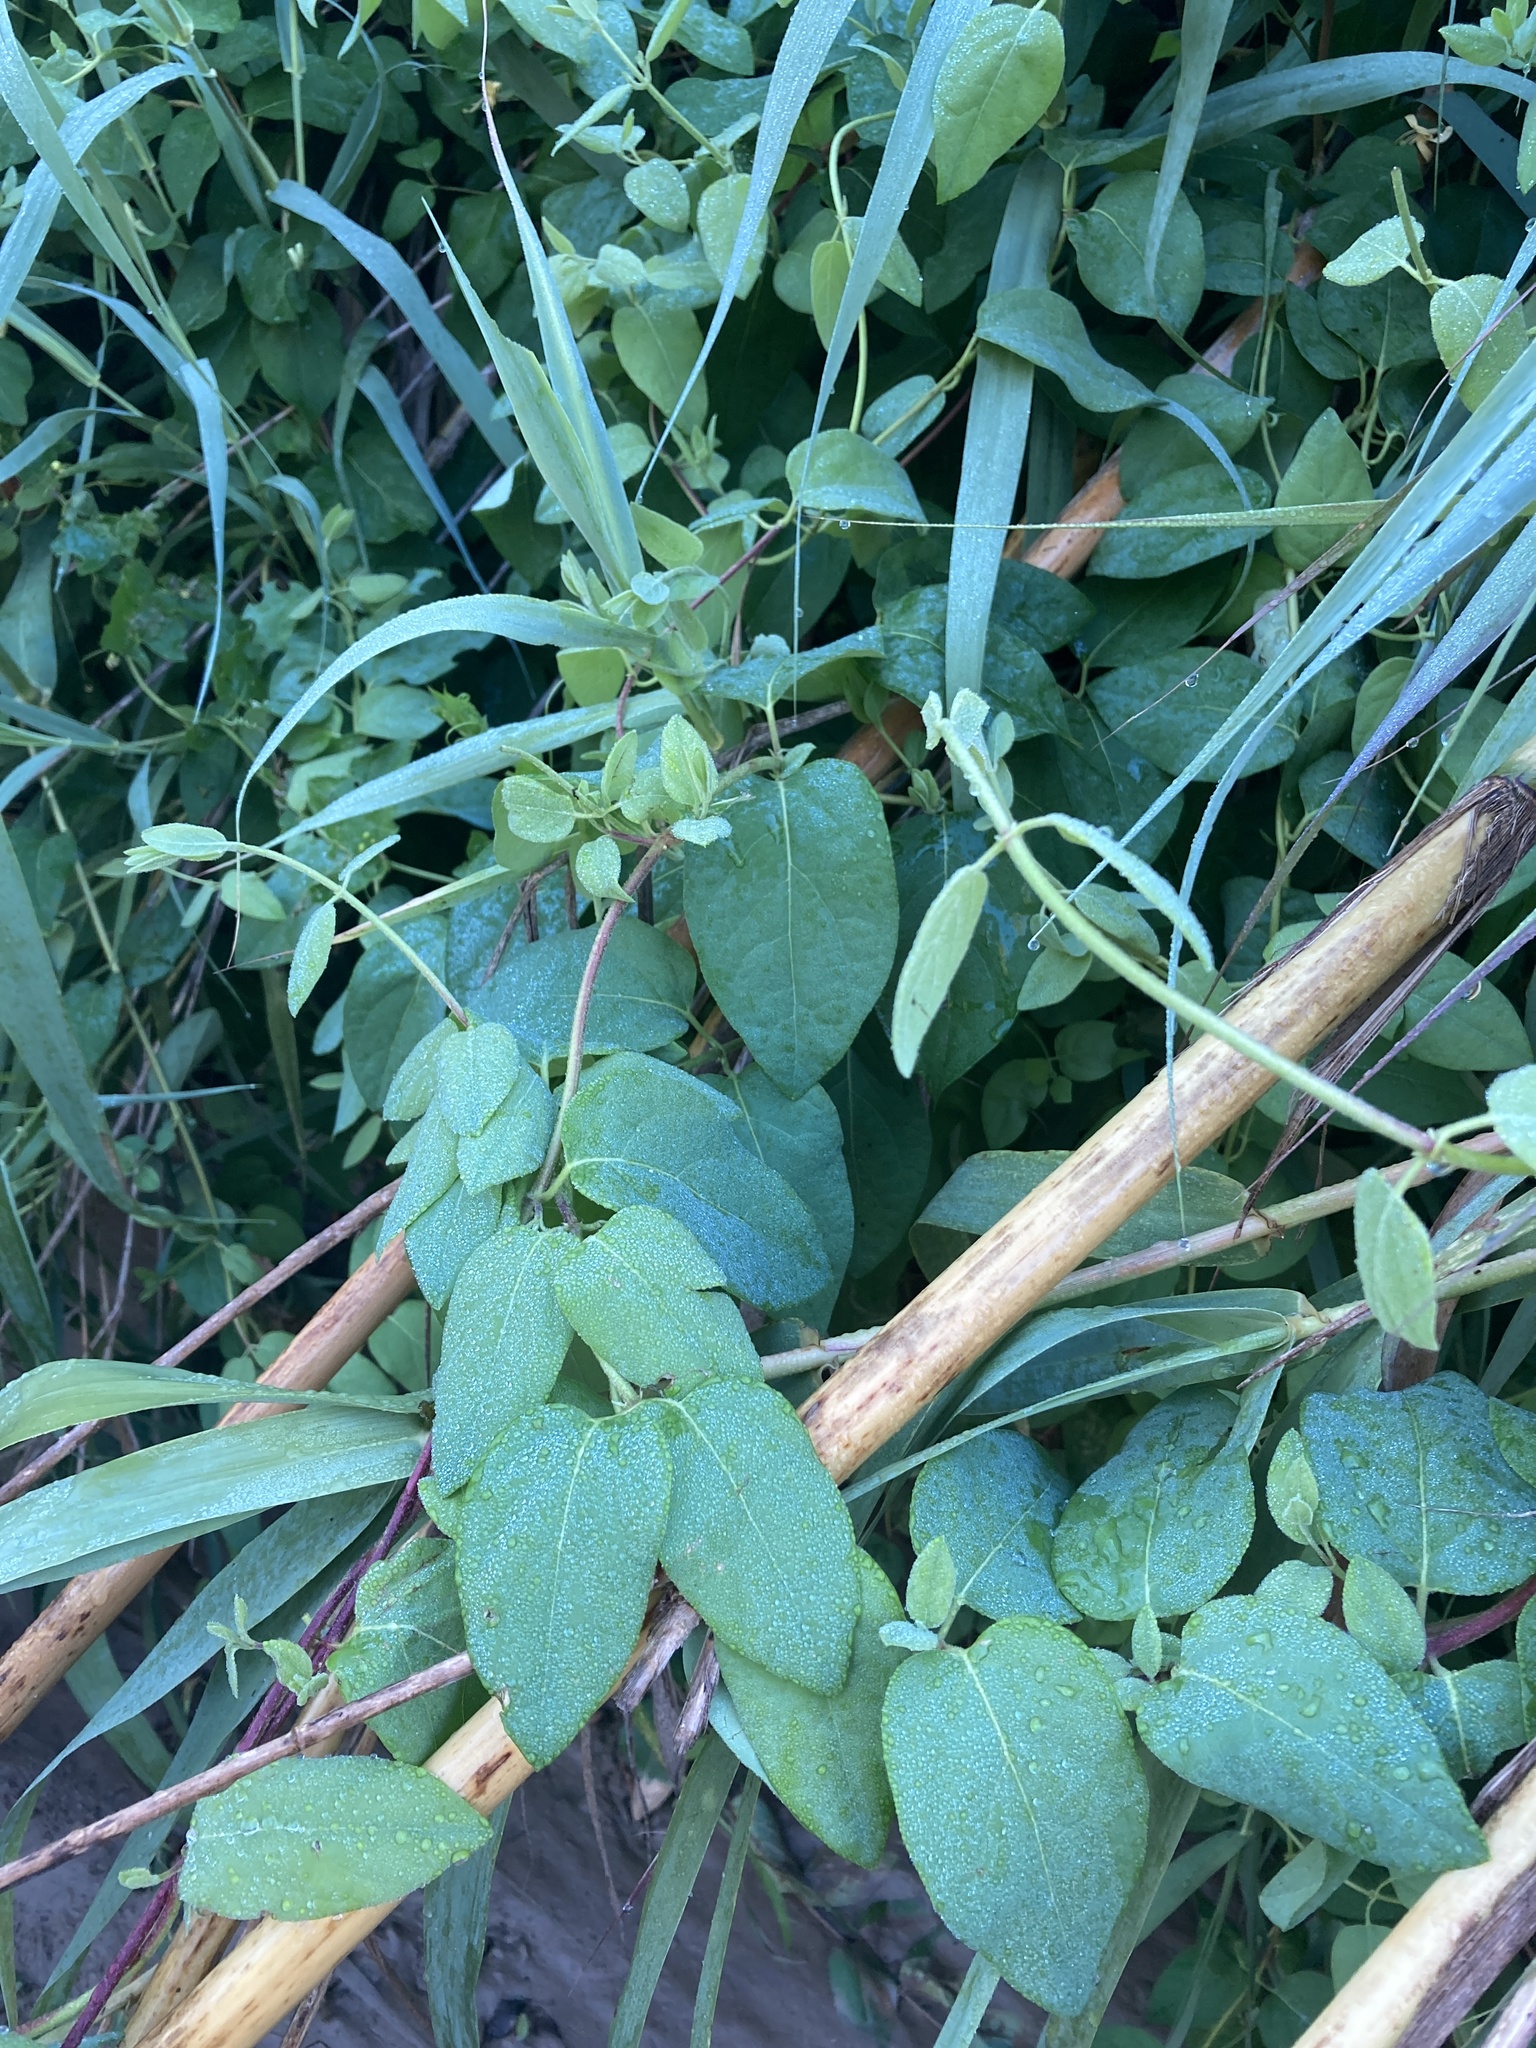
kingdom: Plantae
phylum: Tracheophyta
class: Magnoliopsida
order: Gentianales
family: Apocynaceae
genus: Araujia
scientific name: Araujia sericifera
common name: White bladderflower
